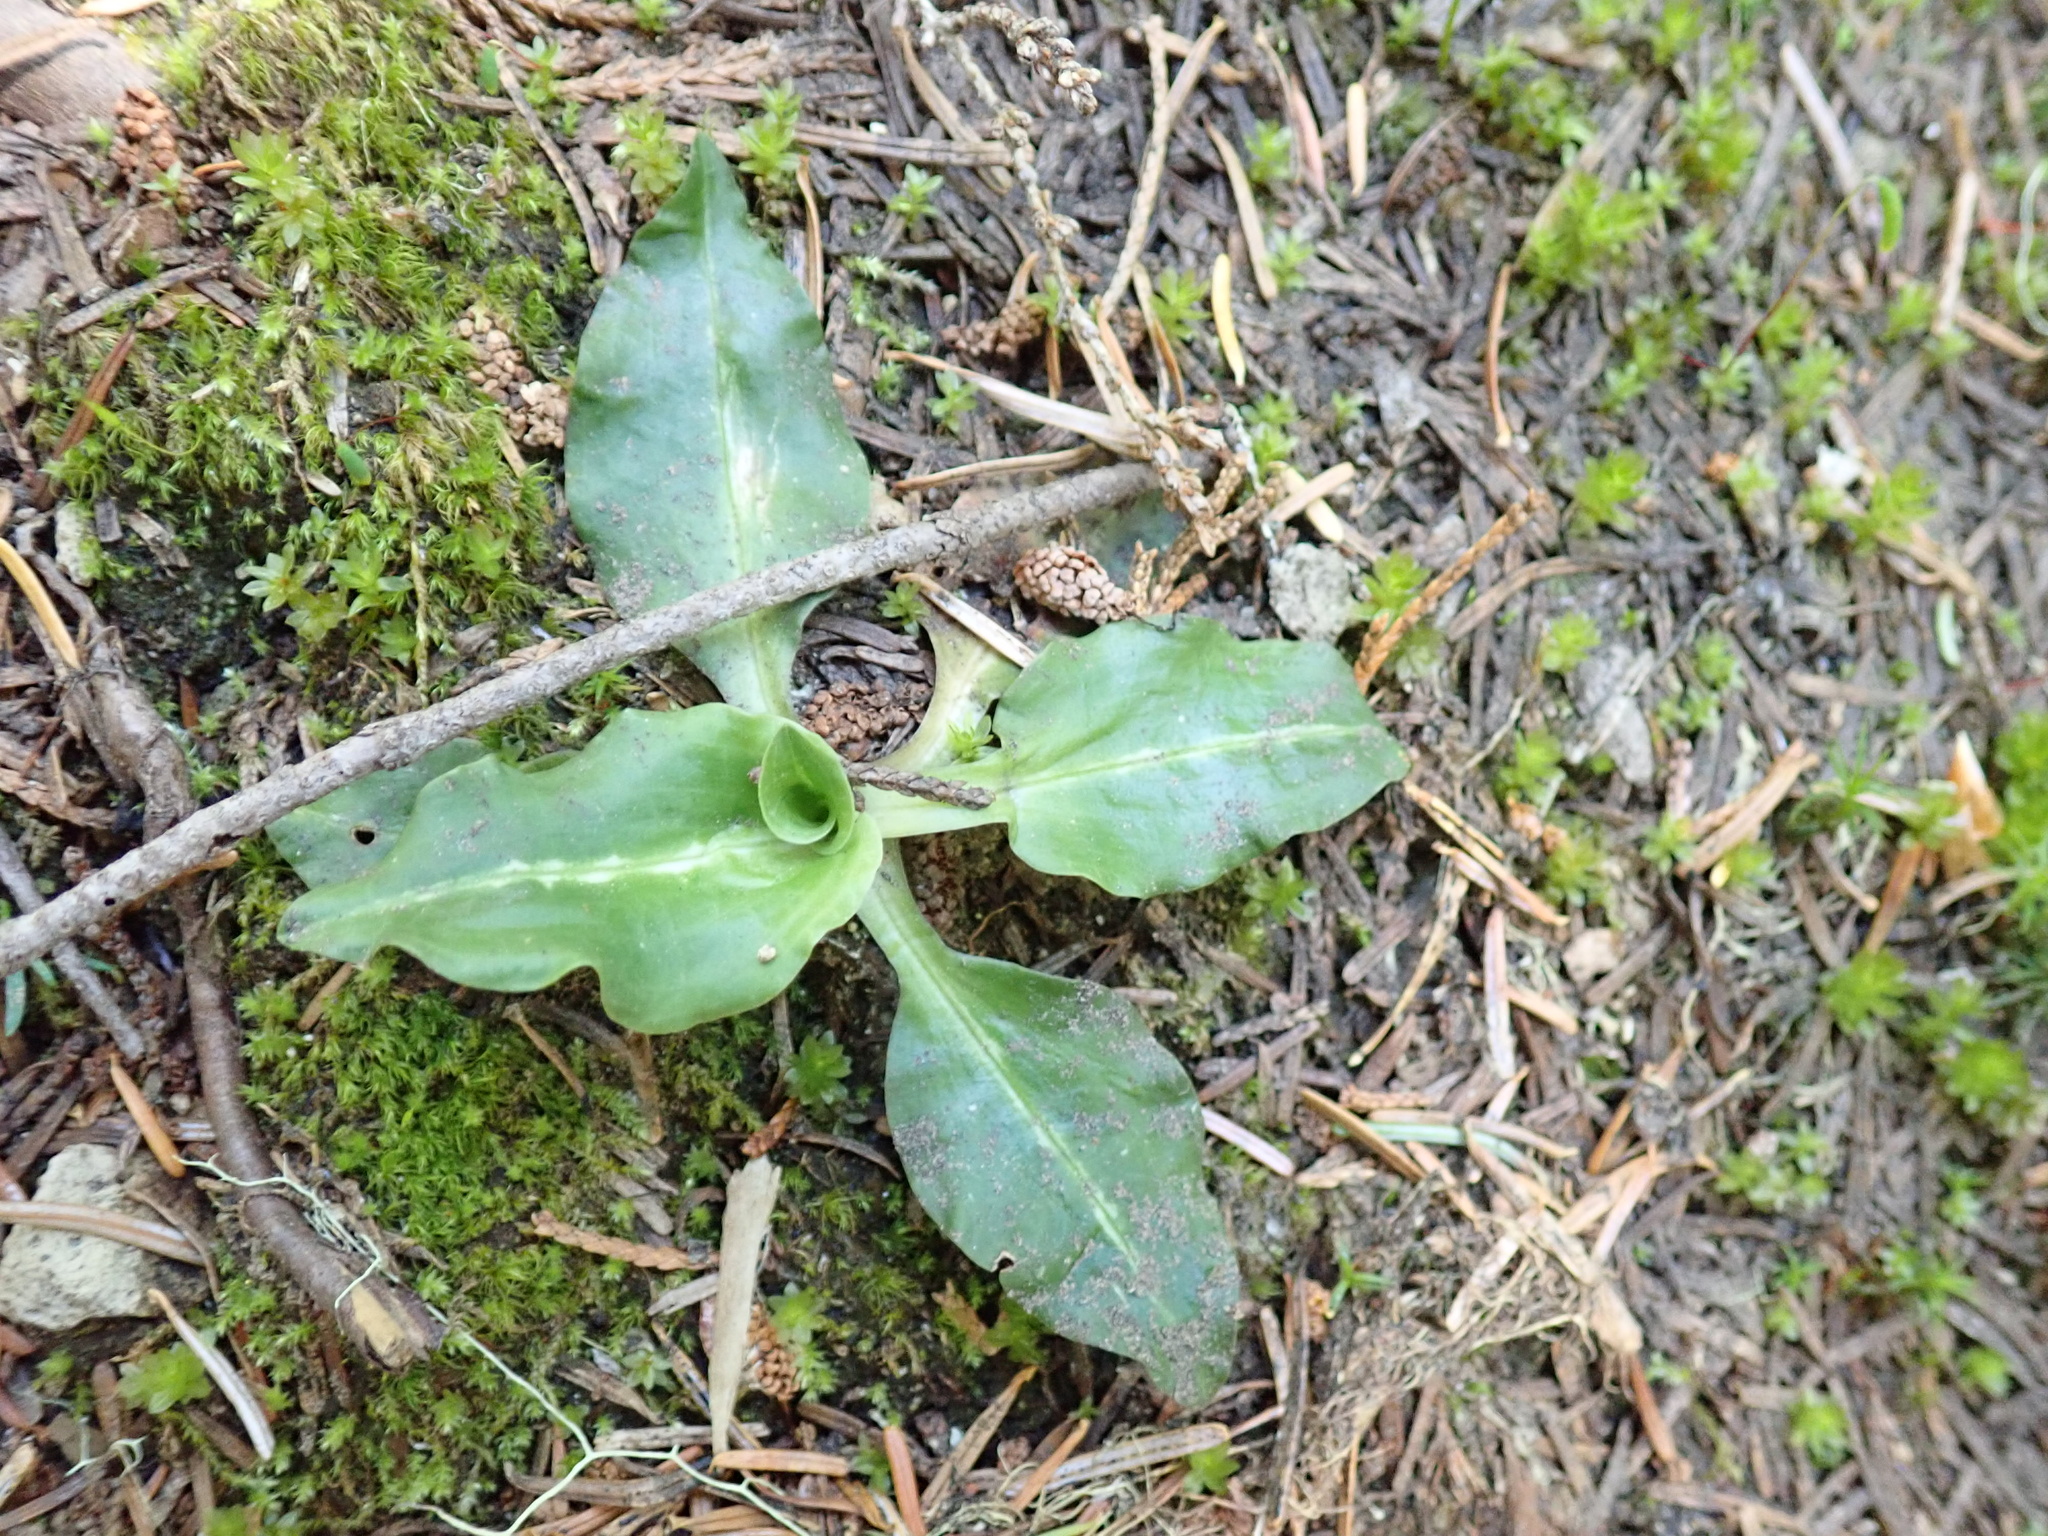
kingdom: Plantae
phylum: Tracheophyta
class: Liliopsida
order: Asparagales
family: Orchidaceae
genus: Goodyera
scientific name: Goodyera oblongifolia
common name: Giant rattlesnake-plantain
